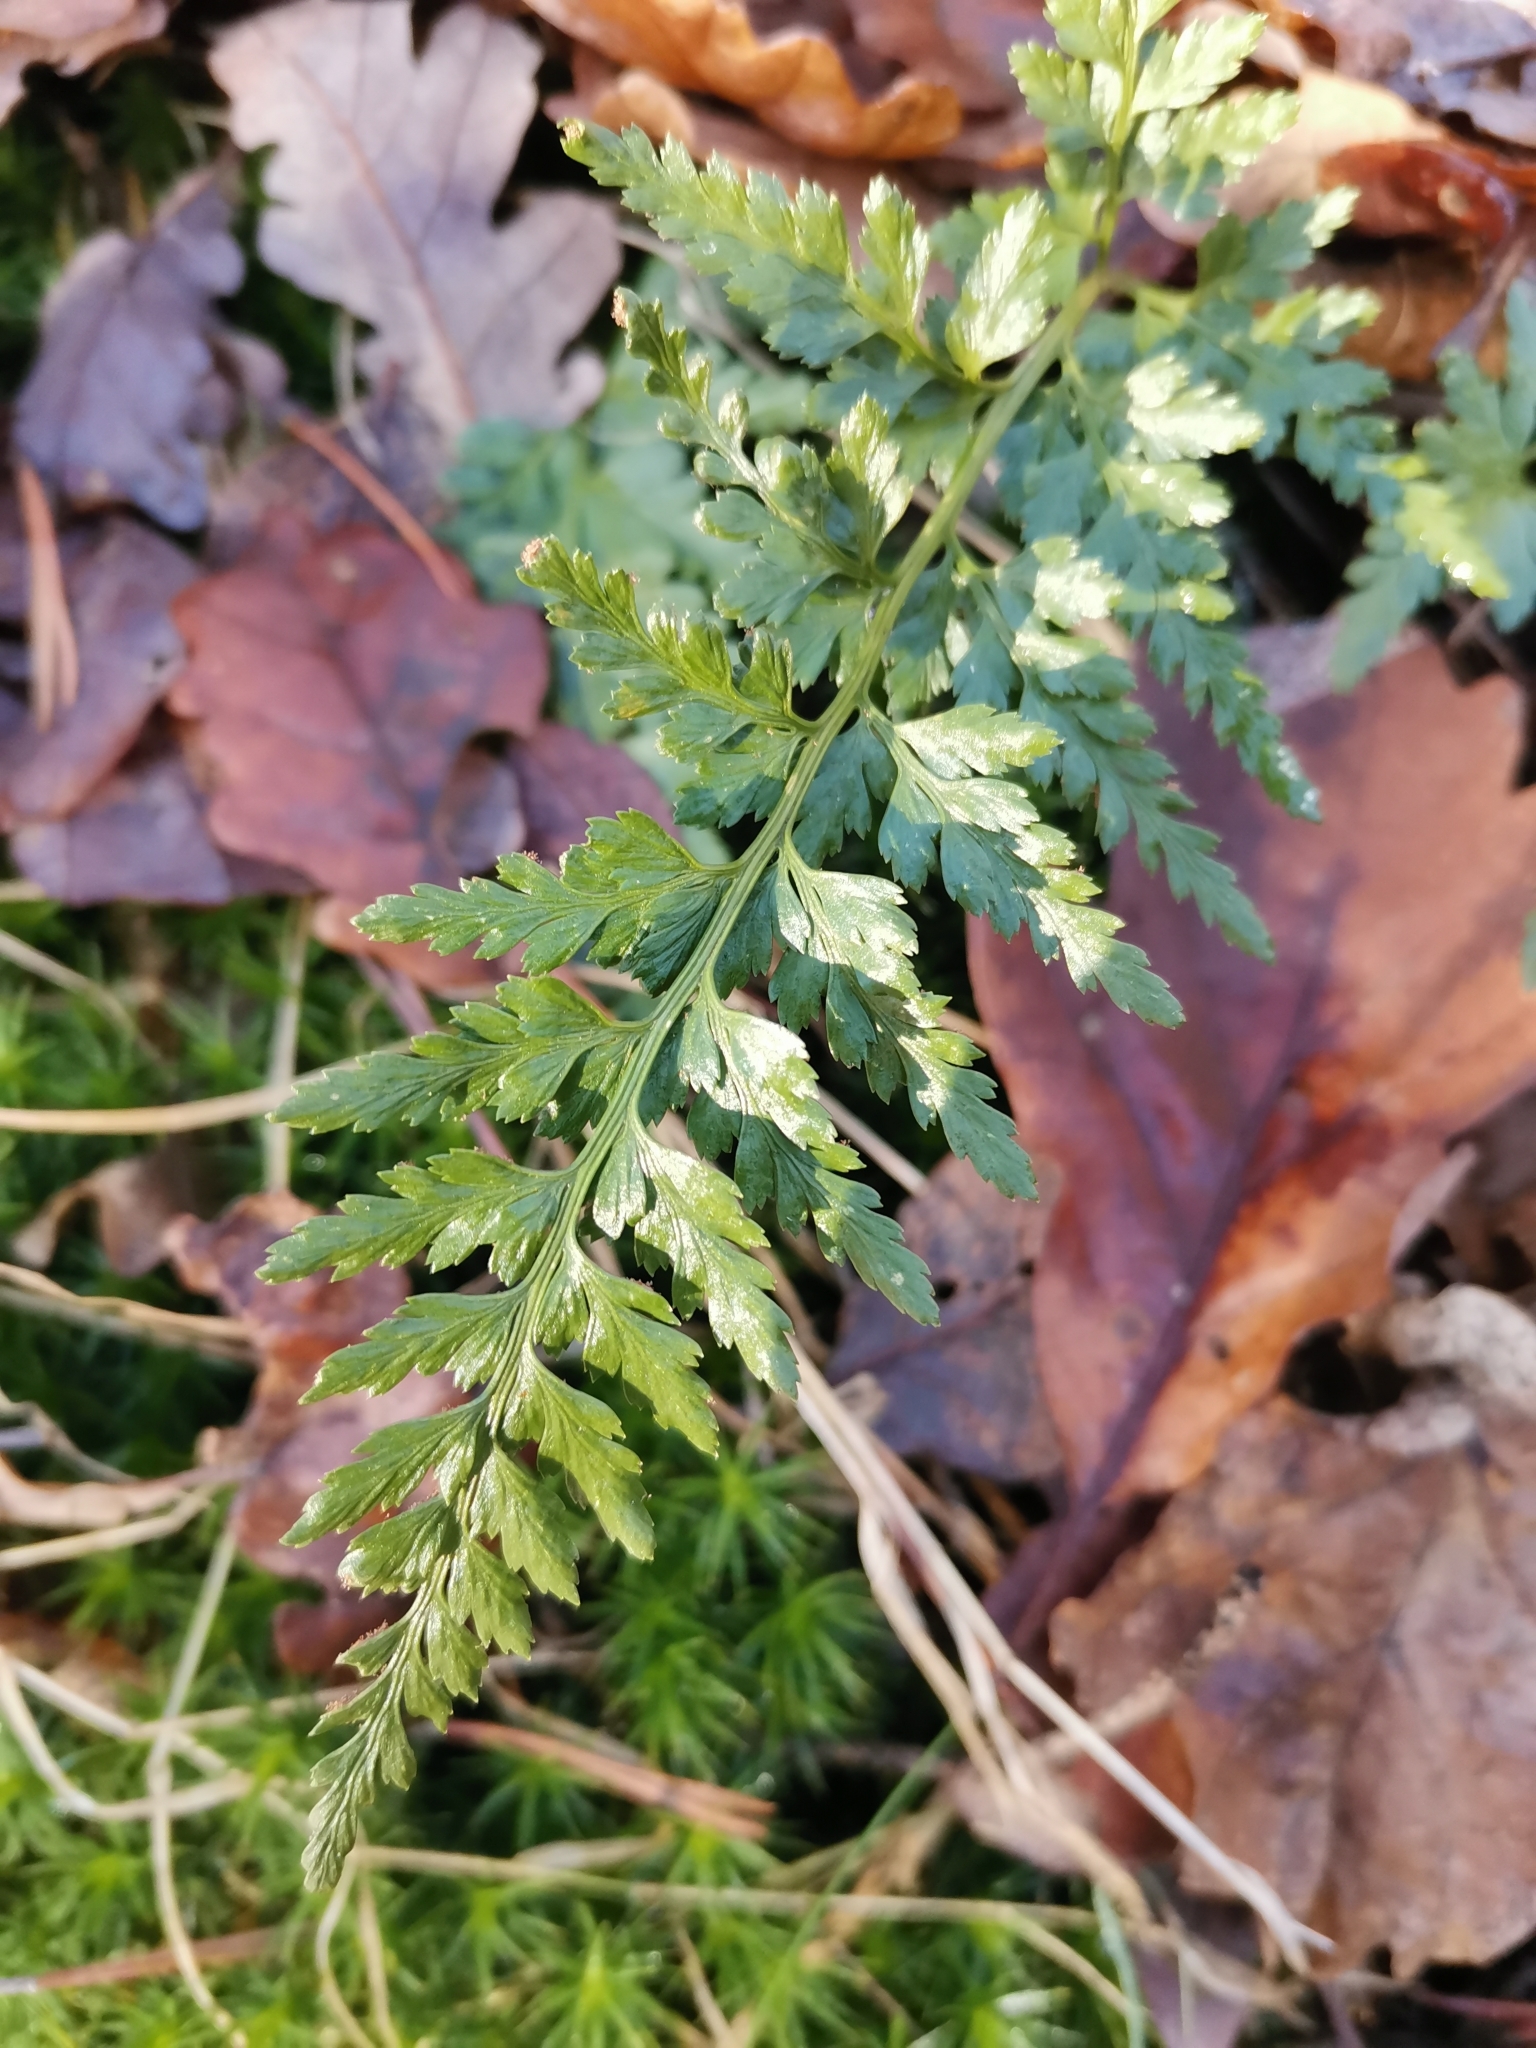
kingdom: Plantae
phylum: Tracheophyta
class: Polypodiopsida
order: Polypodiales
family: Aspleniaceae
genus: Asplenium
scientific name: Asplenium adiantum-nigrum
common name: Black spleenwort
